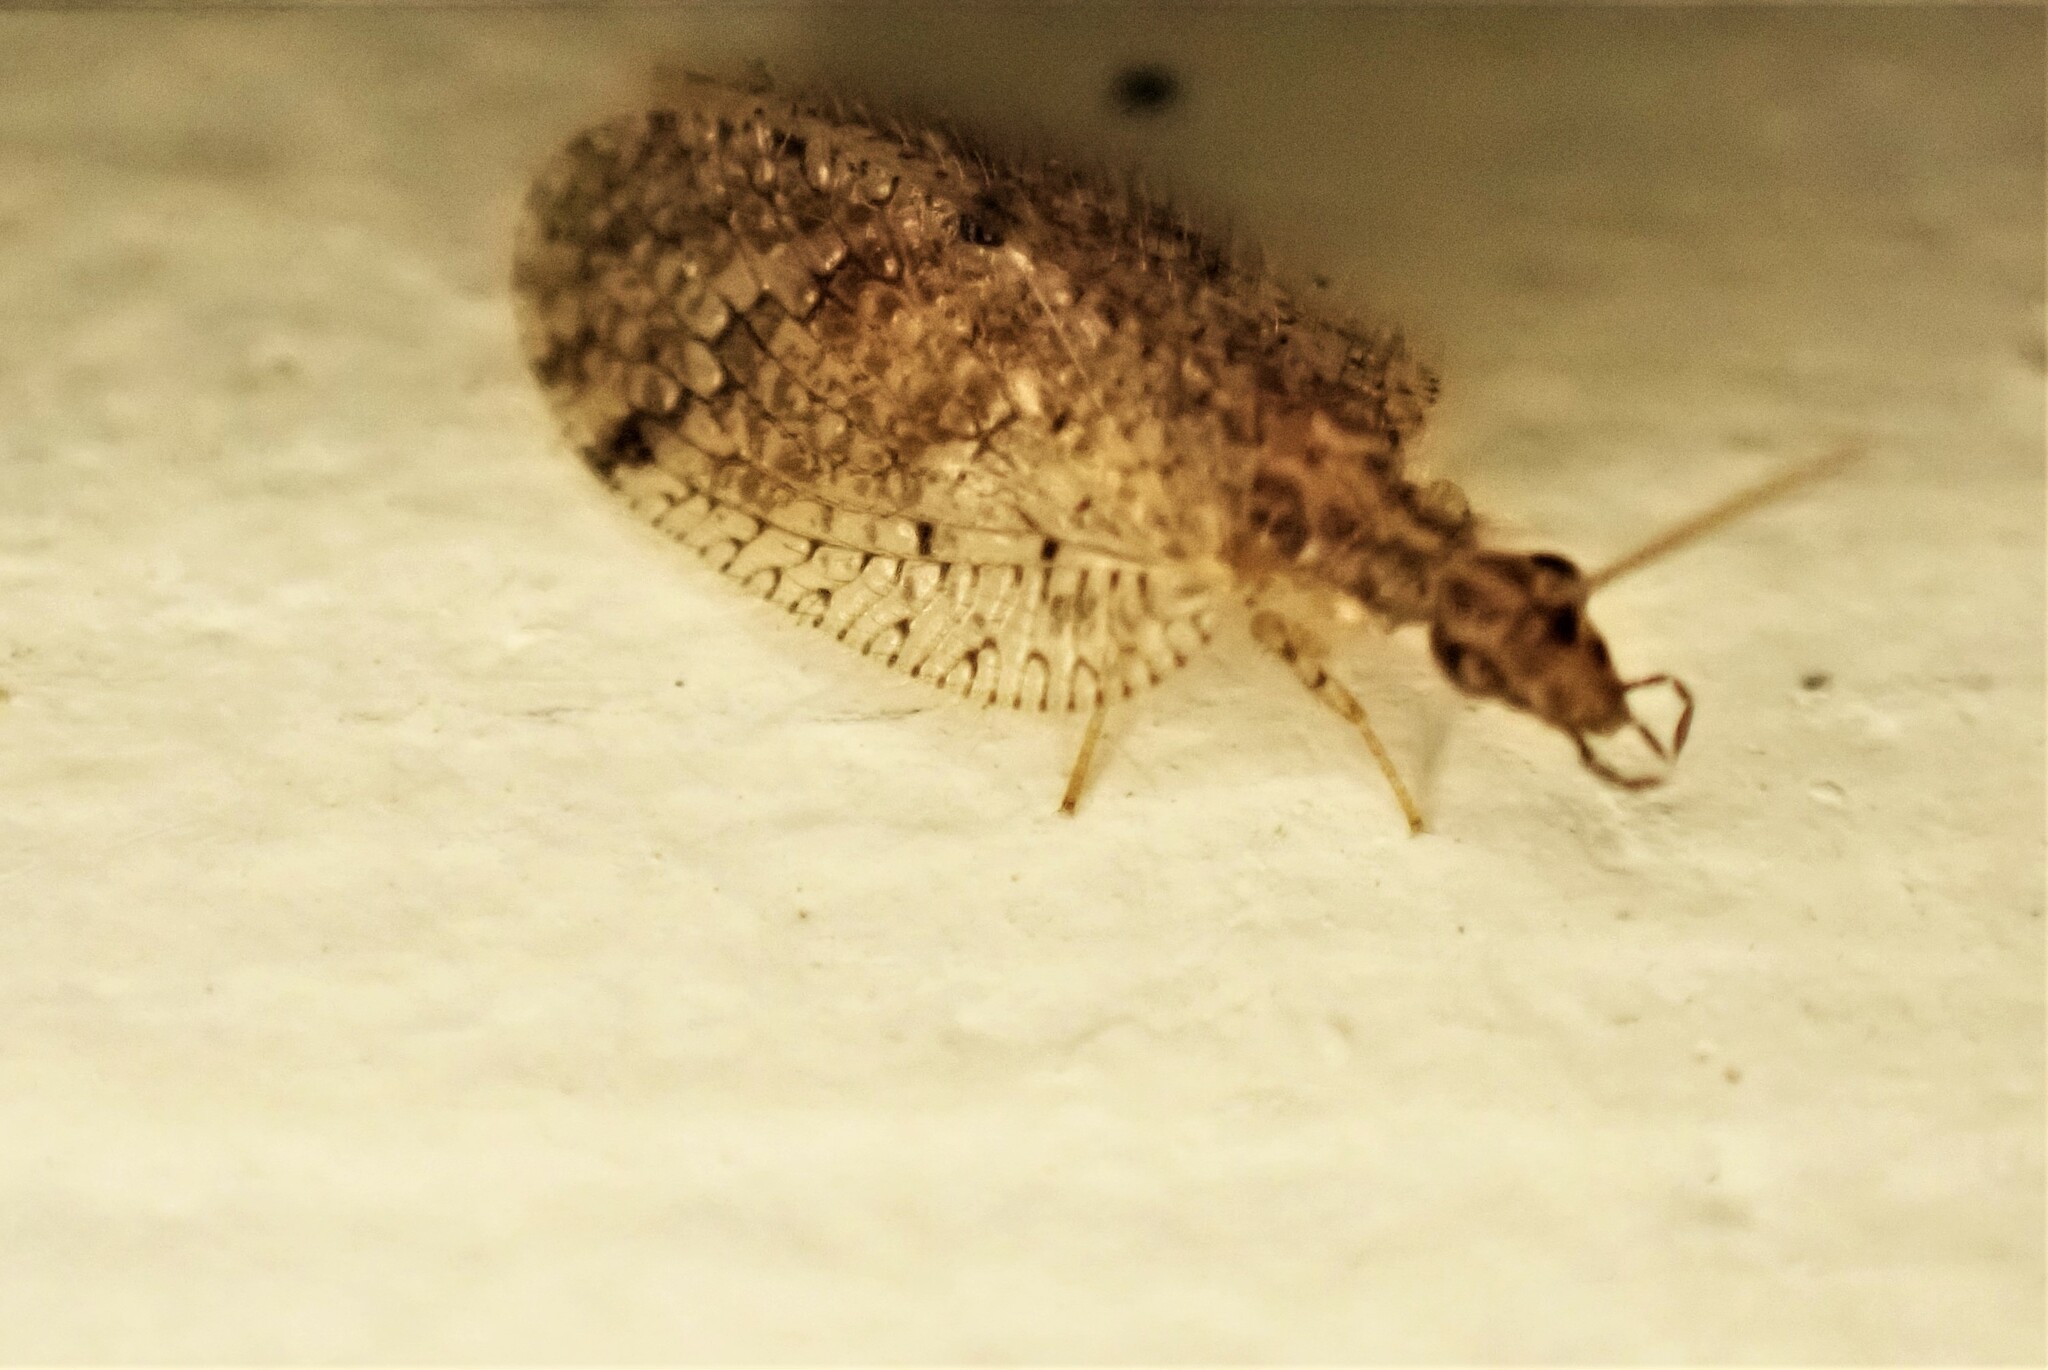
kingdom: Animalia
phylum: Arthropoda
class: Insecta
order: Neuroptera
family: Hemerobiidae
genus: Psectra
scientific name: Psectra nakaharai
